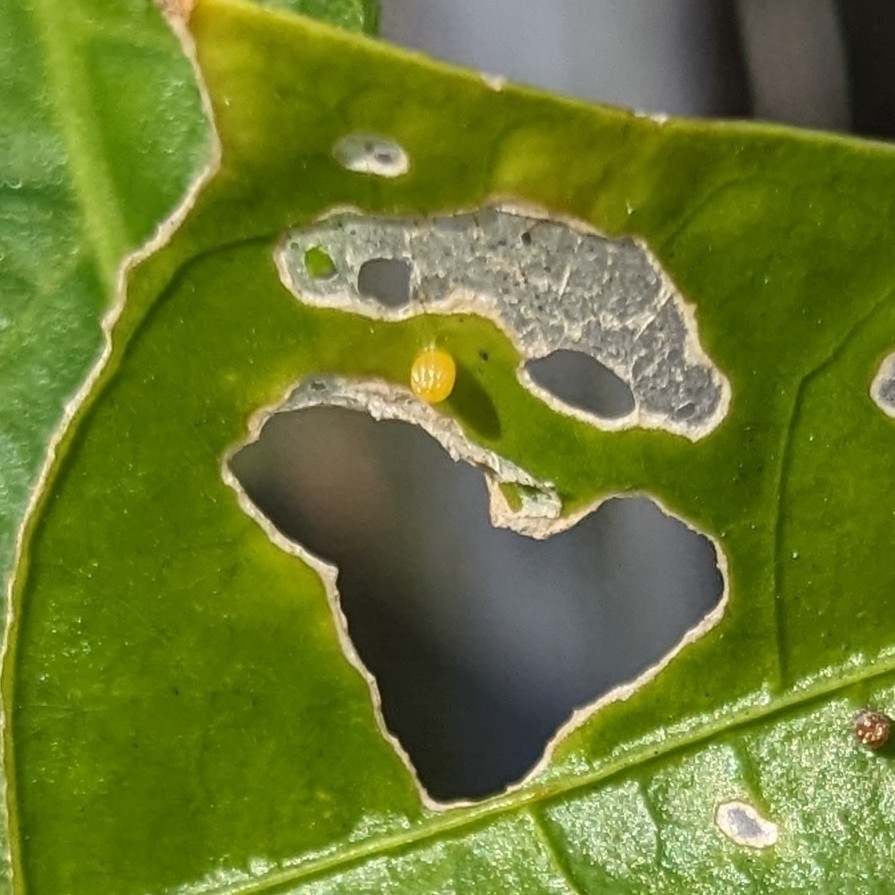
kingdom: Animalia
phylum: Arthropoda
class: Insecta
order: Lepidoptera
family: Nymphalidae
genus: Dione
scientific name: Dione vanillae
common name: Gulf fritillary
